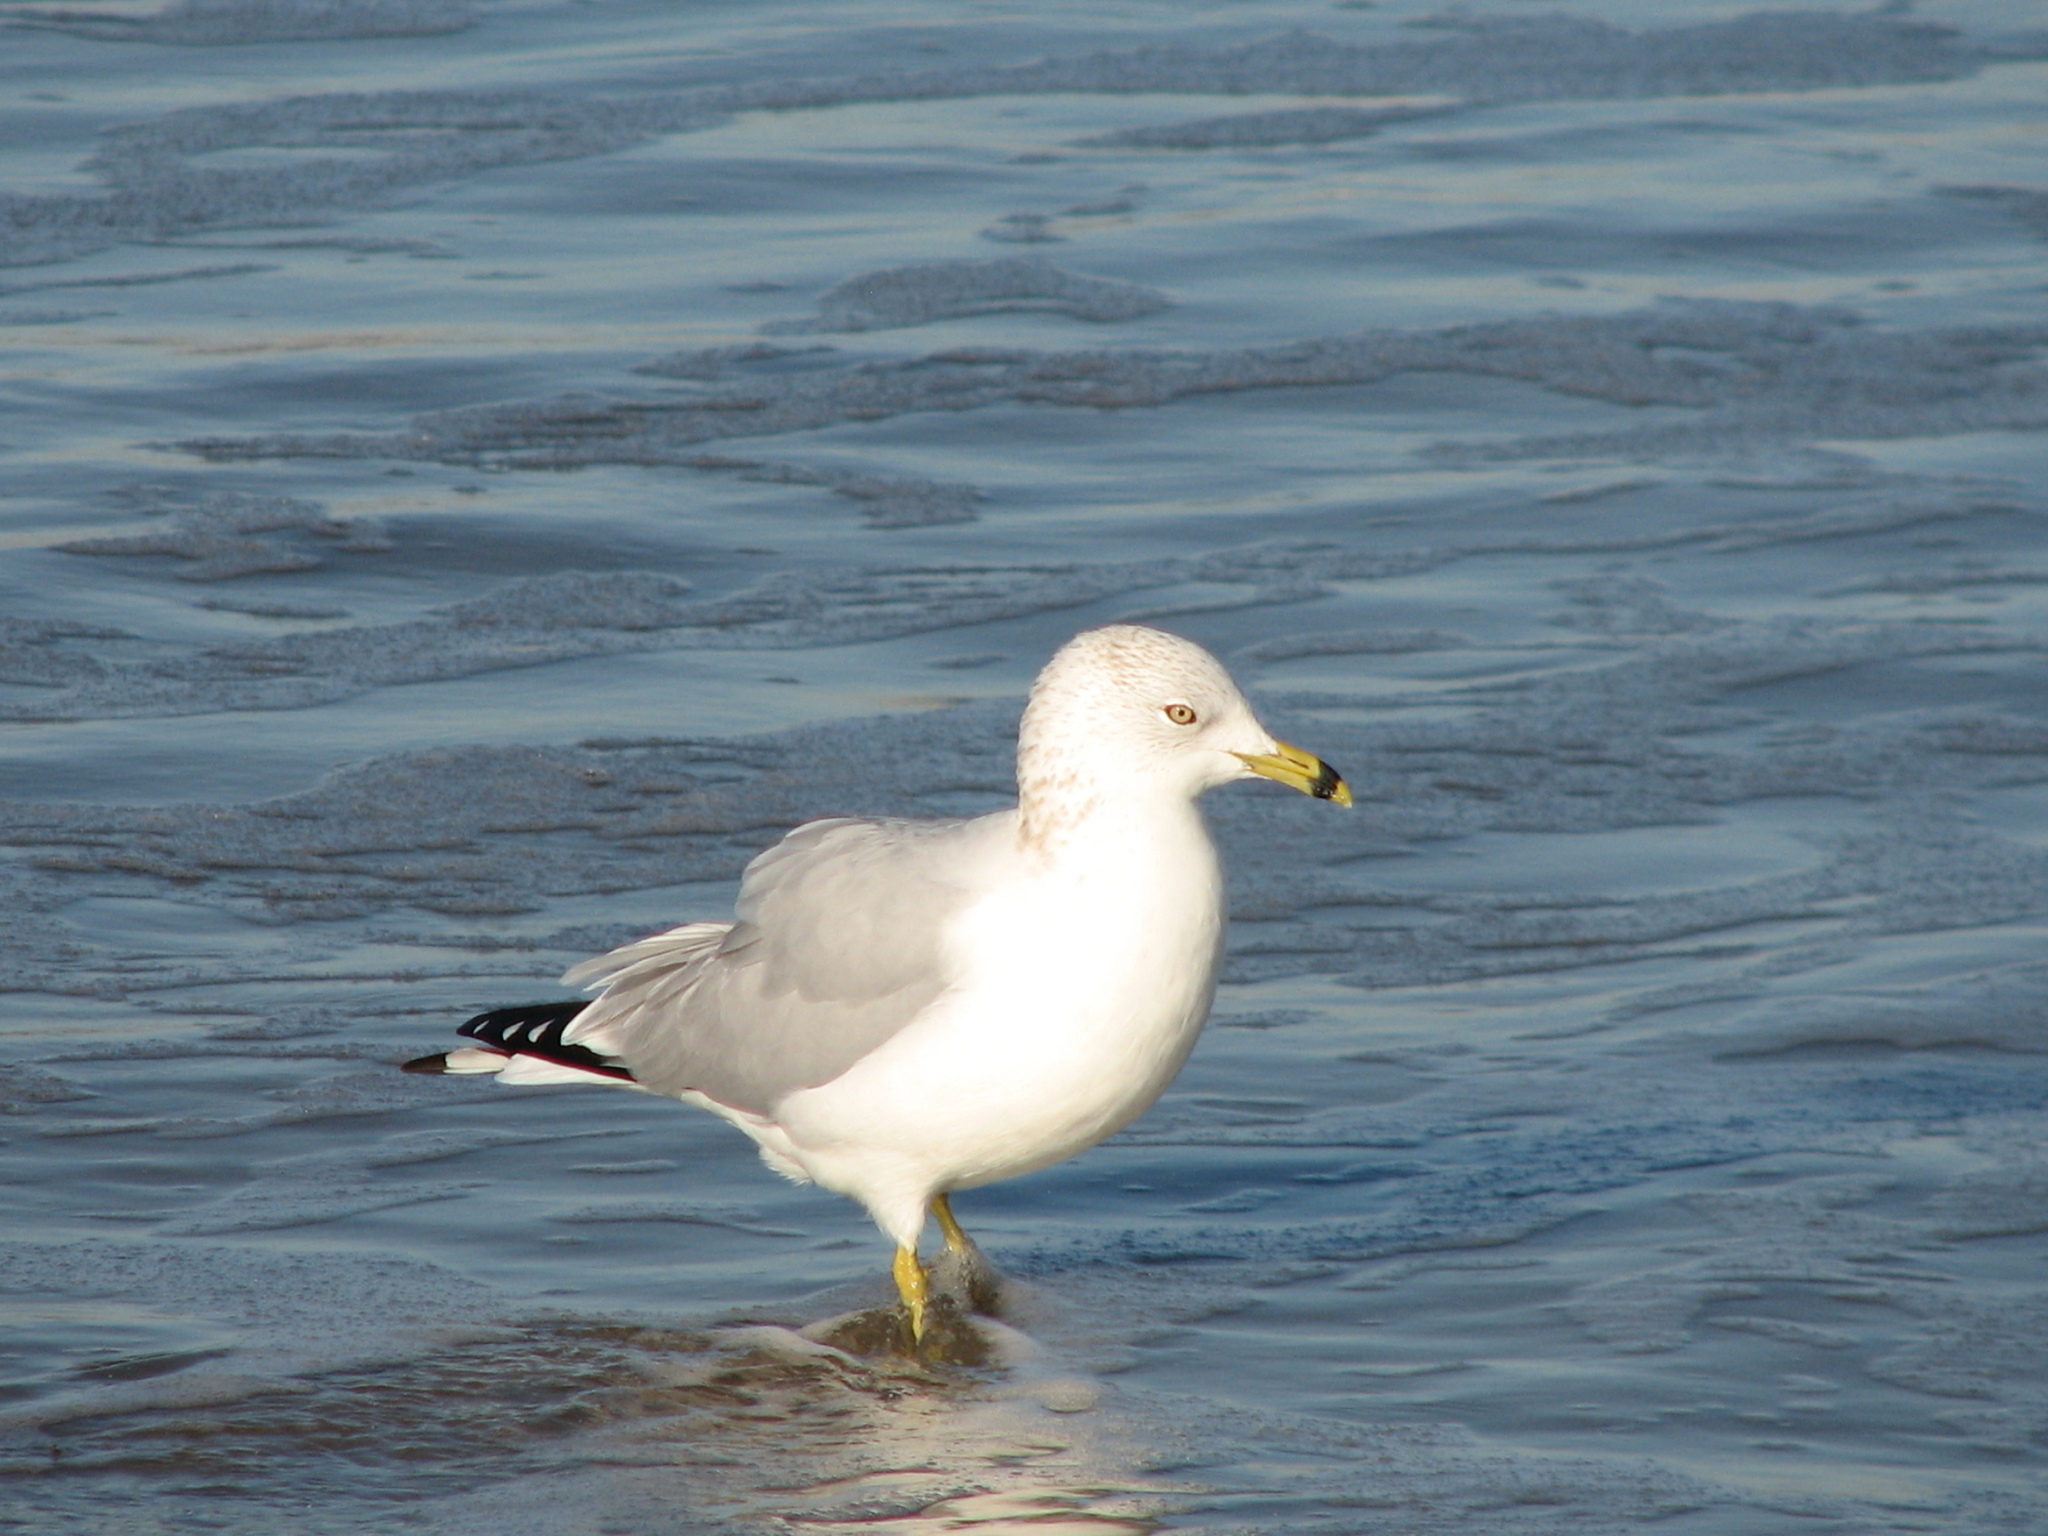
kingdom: Animalia
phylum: Chordata
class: Aves
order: Charadriiformes
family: Laridae
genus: Larus
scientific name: Larus delawarensis
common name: Ring-billed gull
